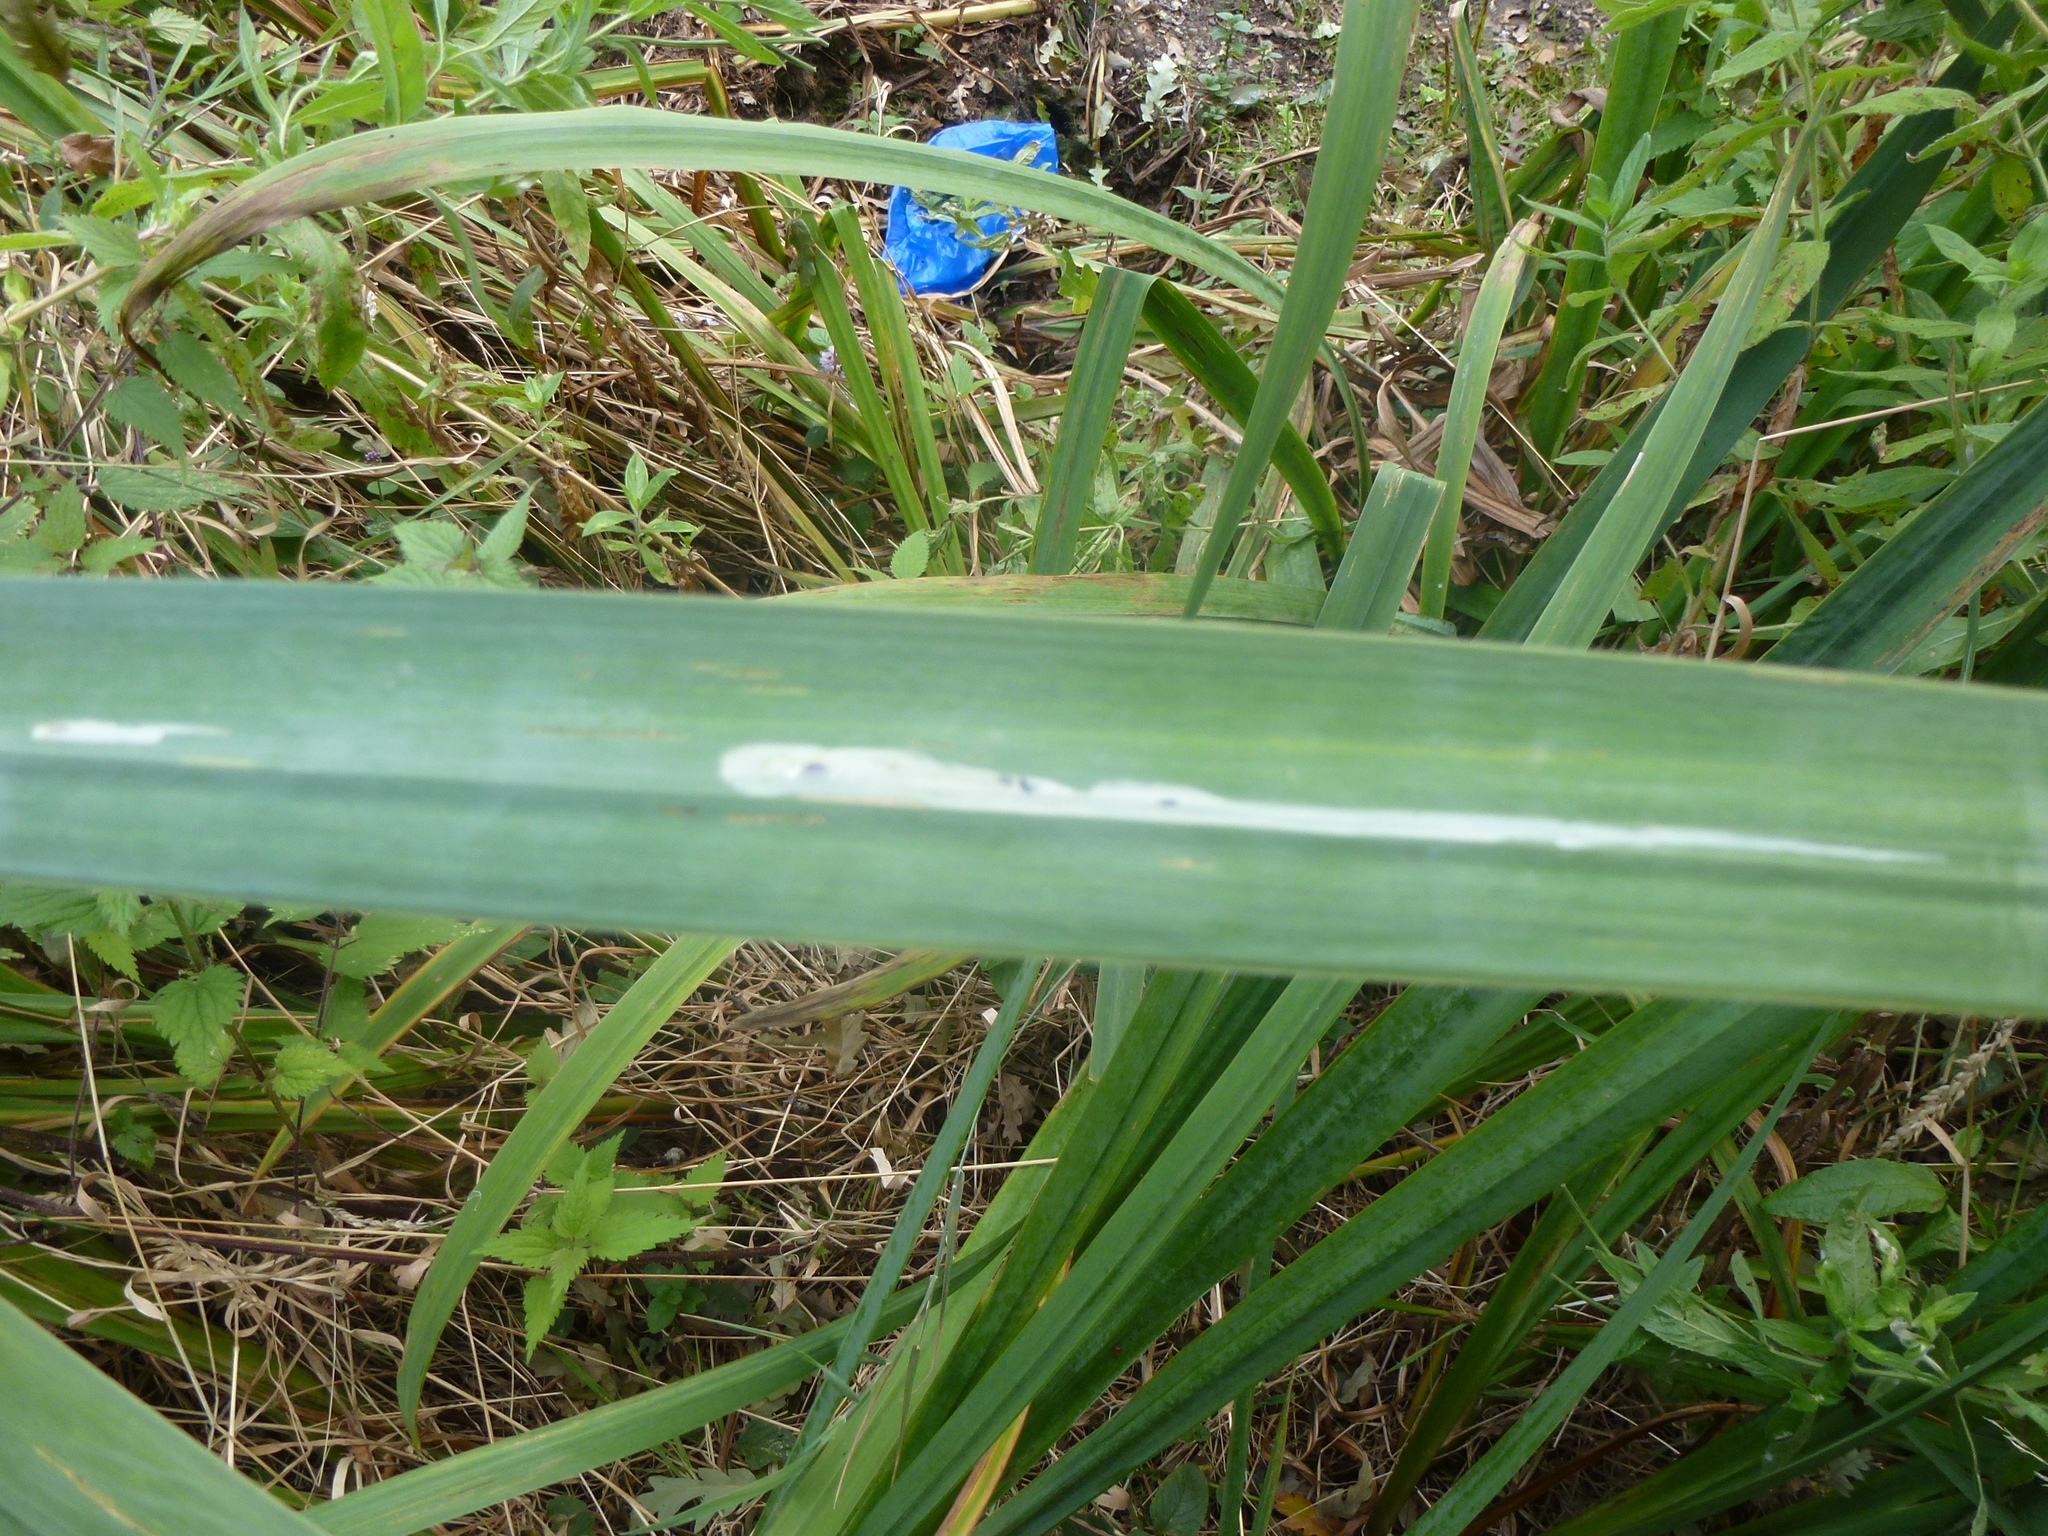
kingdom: Animalia
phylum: Arthropoda
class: Insecta
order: Diptera
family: Agromyzidae
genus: Cerodontha
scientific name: Cerodontha ircos
